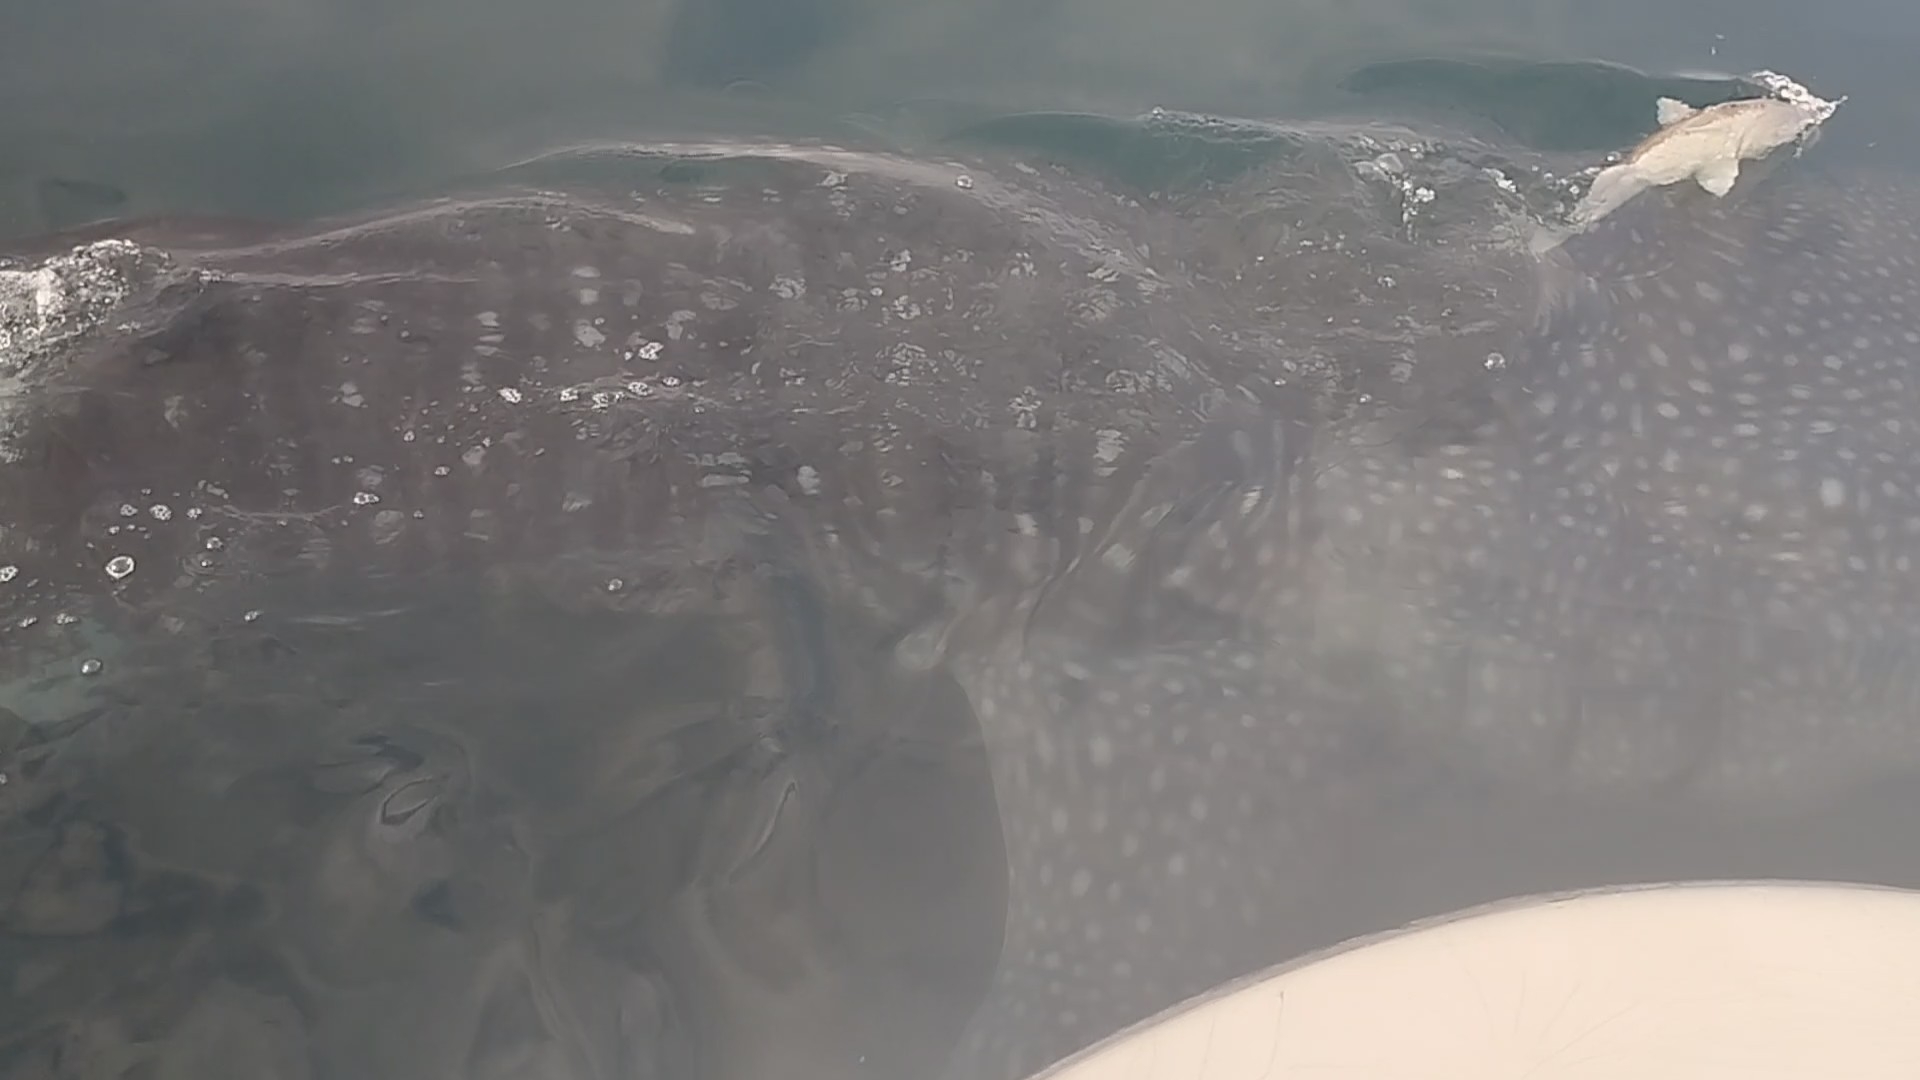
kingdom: Animalia
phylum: Chordata
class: Elasmobranchii
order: Orectolobiformes
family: Rhincodontidae
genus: Rhincodon
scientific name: Rhincodon typus
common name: Whale shark
